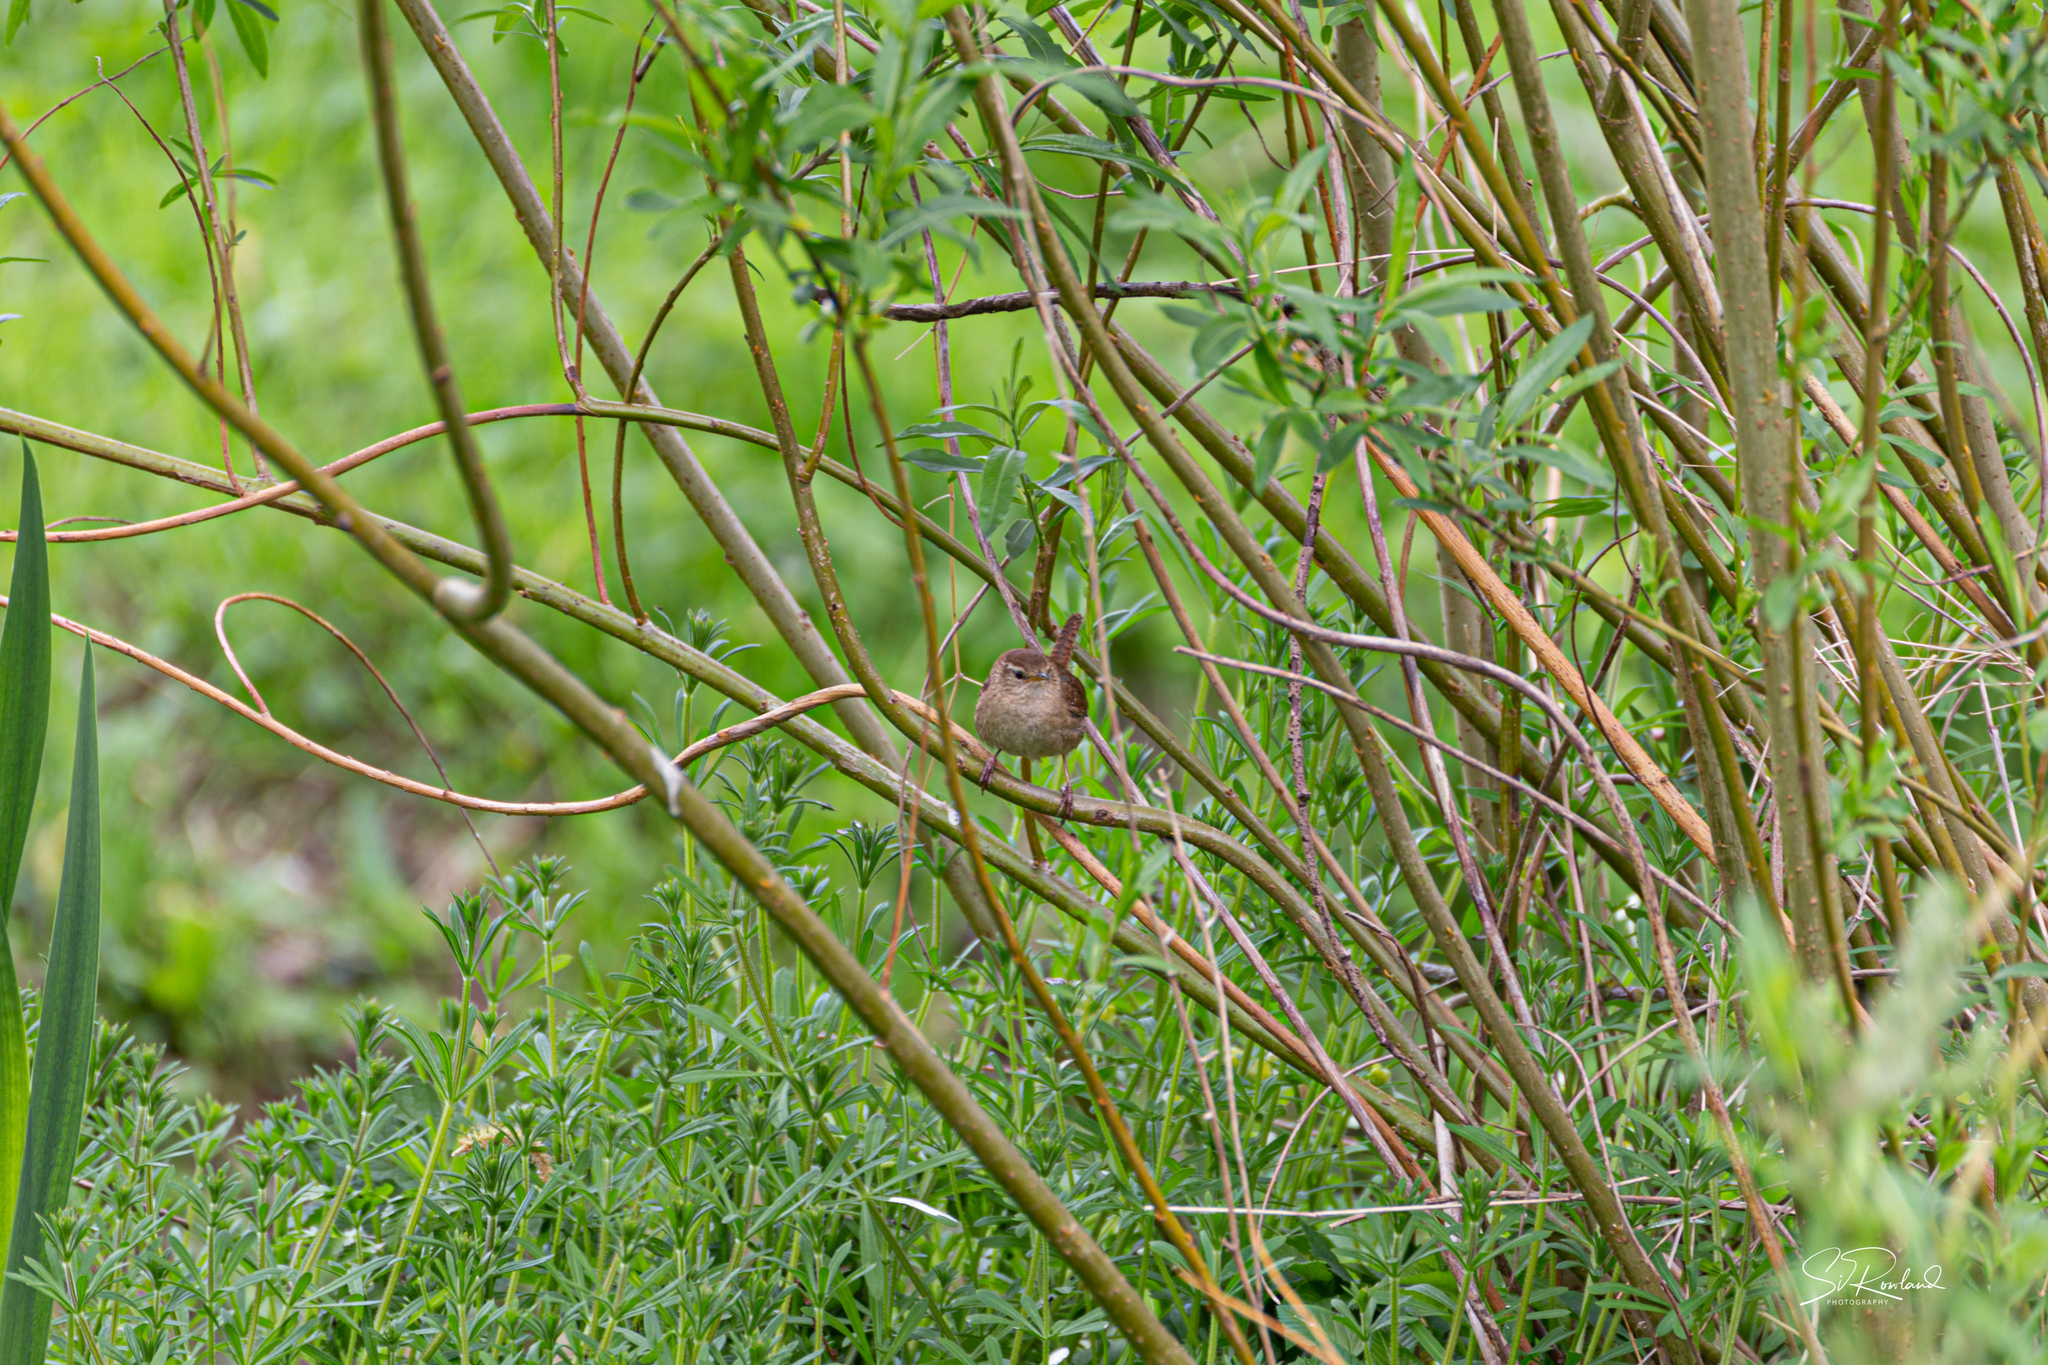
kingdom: Animalia
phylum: Chordata
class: Aves
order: Passeriformes
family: Troglodytidae
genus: Troglodytes
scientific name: Troglodytes troglodytes
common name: Eurasian wren
